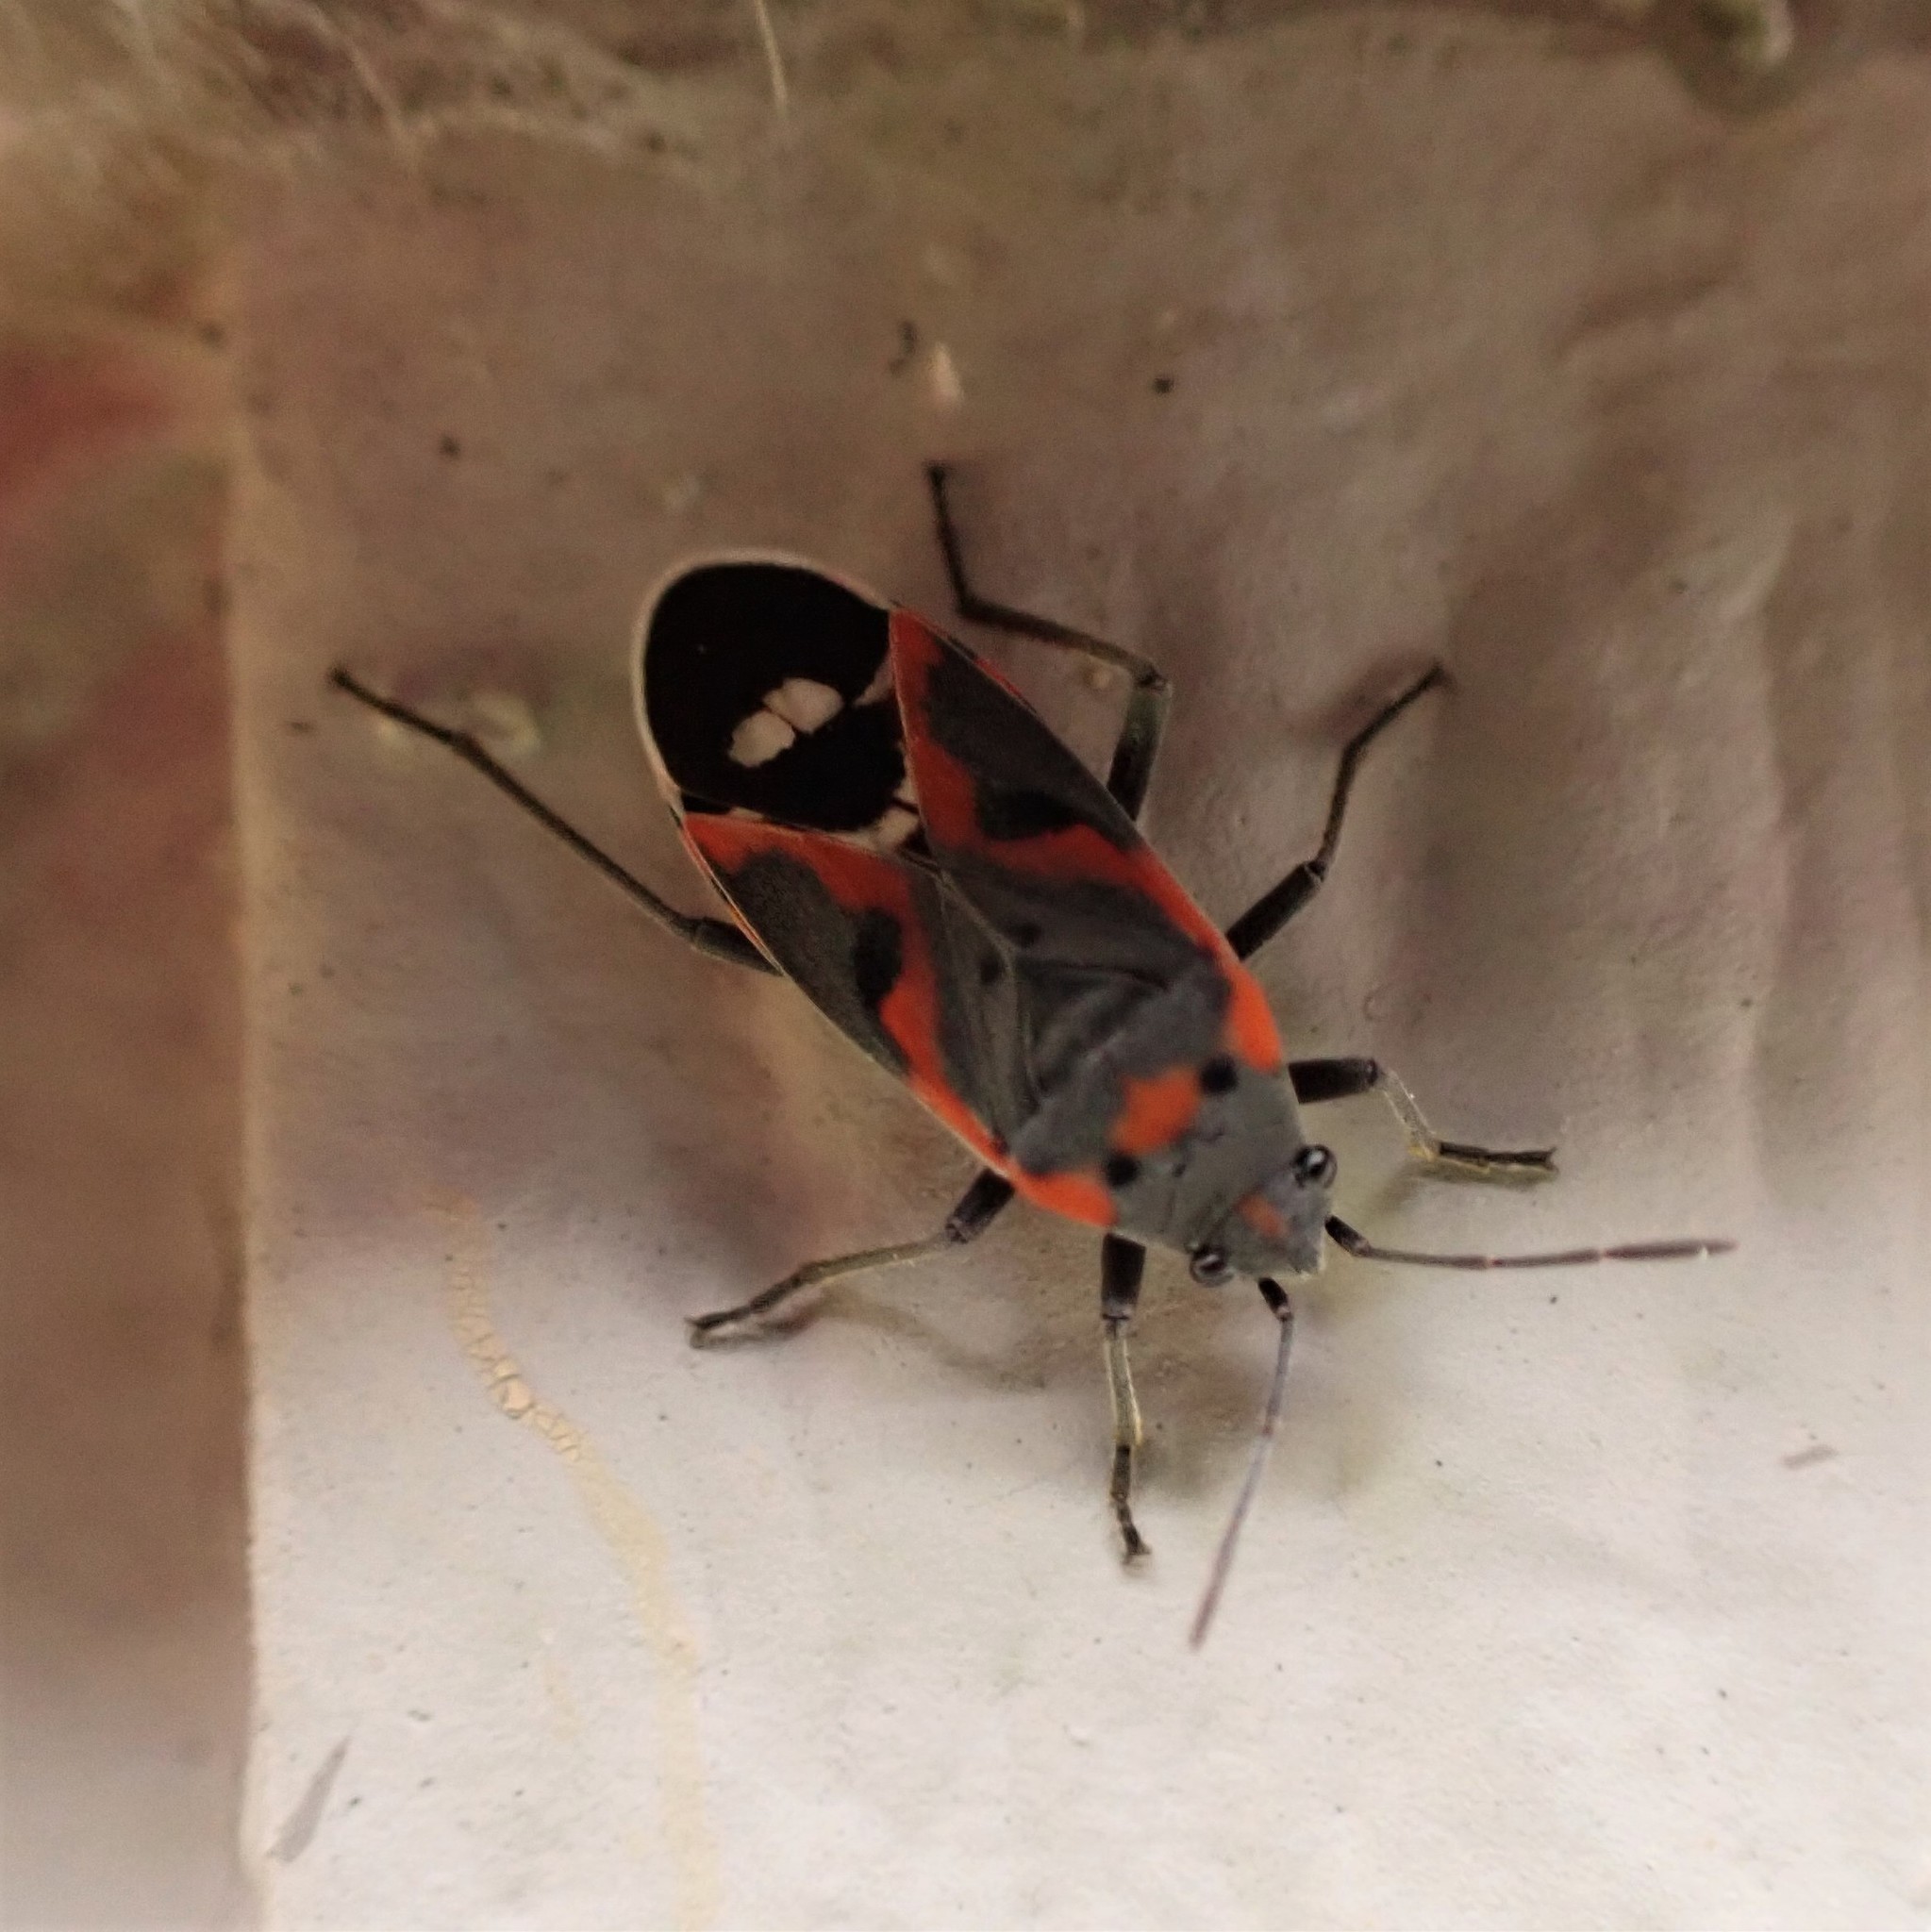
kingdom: Animalia
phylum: Arthropoda
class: Insecta
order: Hemiptera
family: Lygaeidae
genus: Lygaeus
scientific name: Lygaeus kalmii
